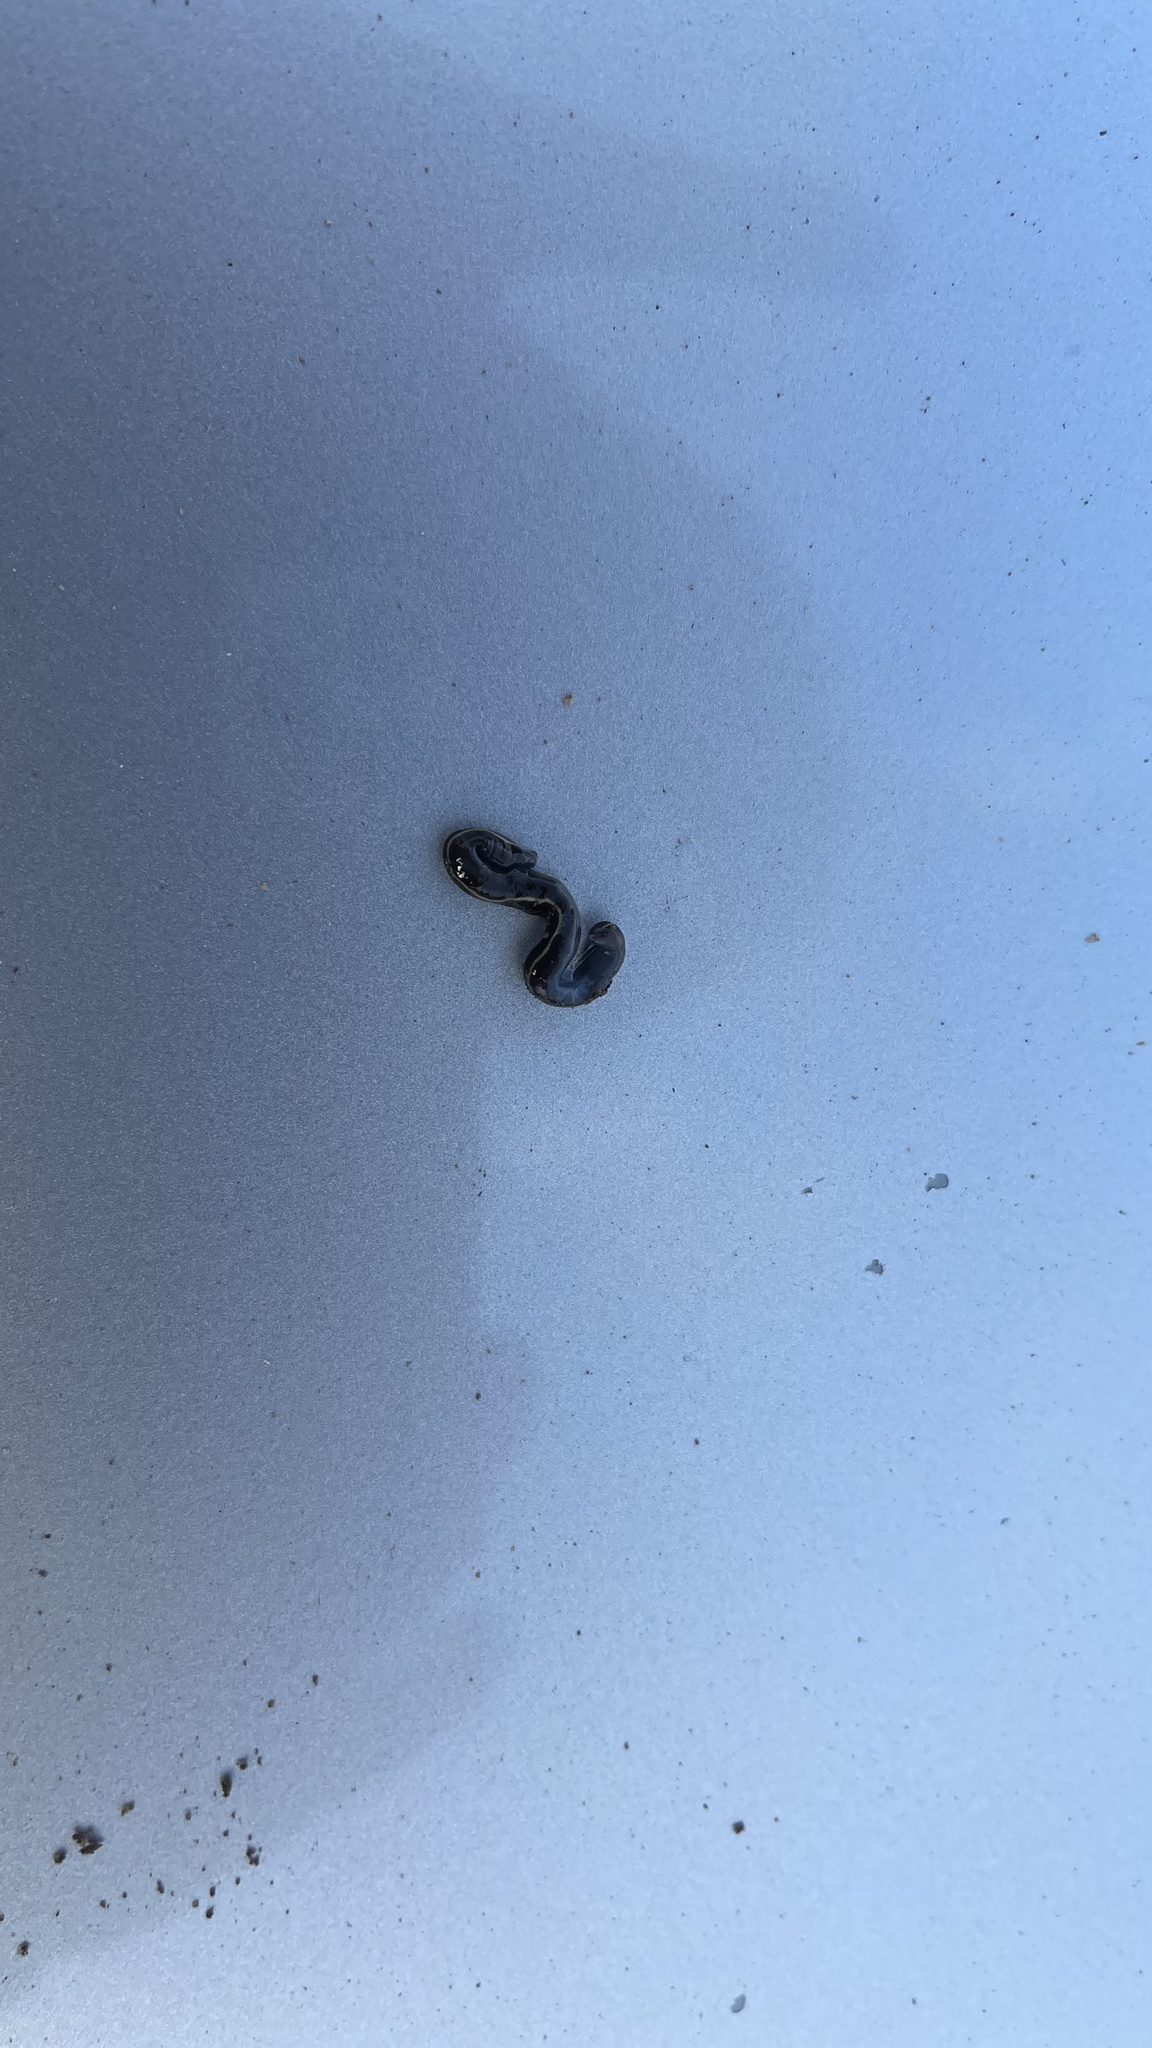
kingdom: Animalia
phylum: Platyhelminthes
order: Tricladida
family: Geoplanidae
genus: Caenoplana
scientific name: Caenoplana coerulea
